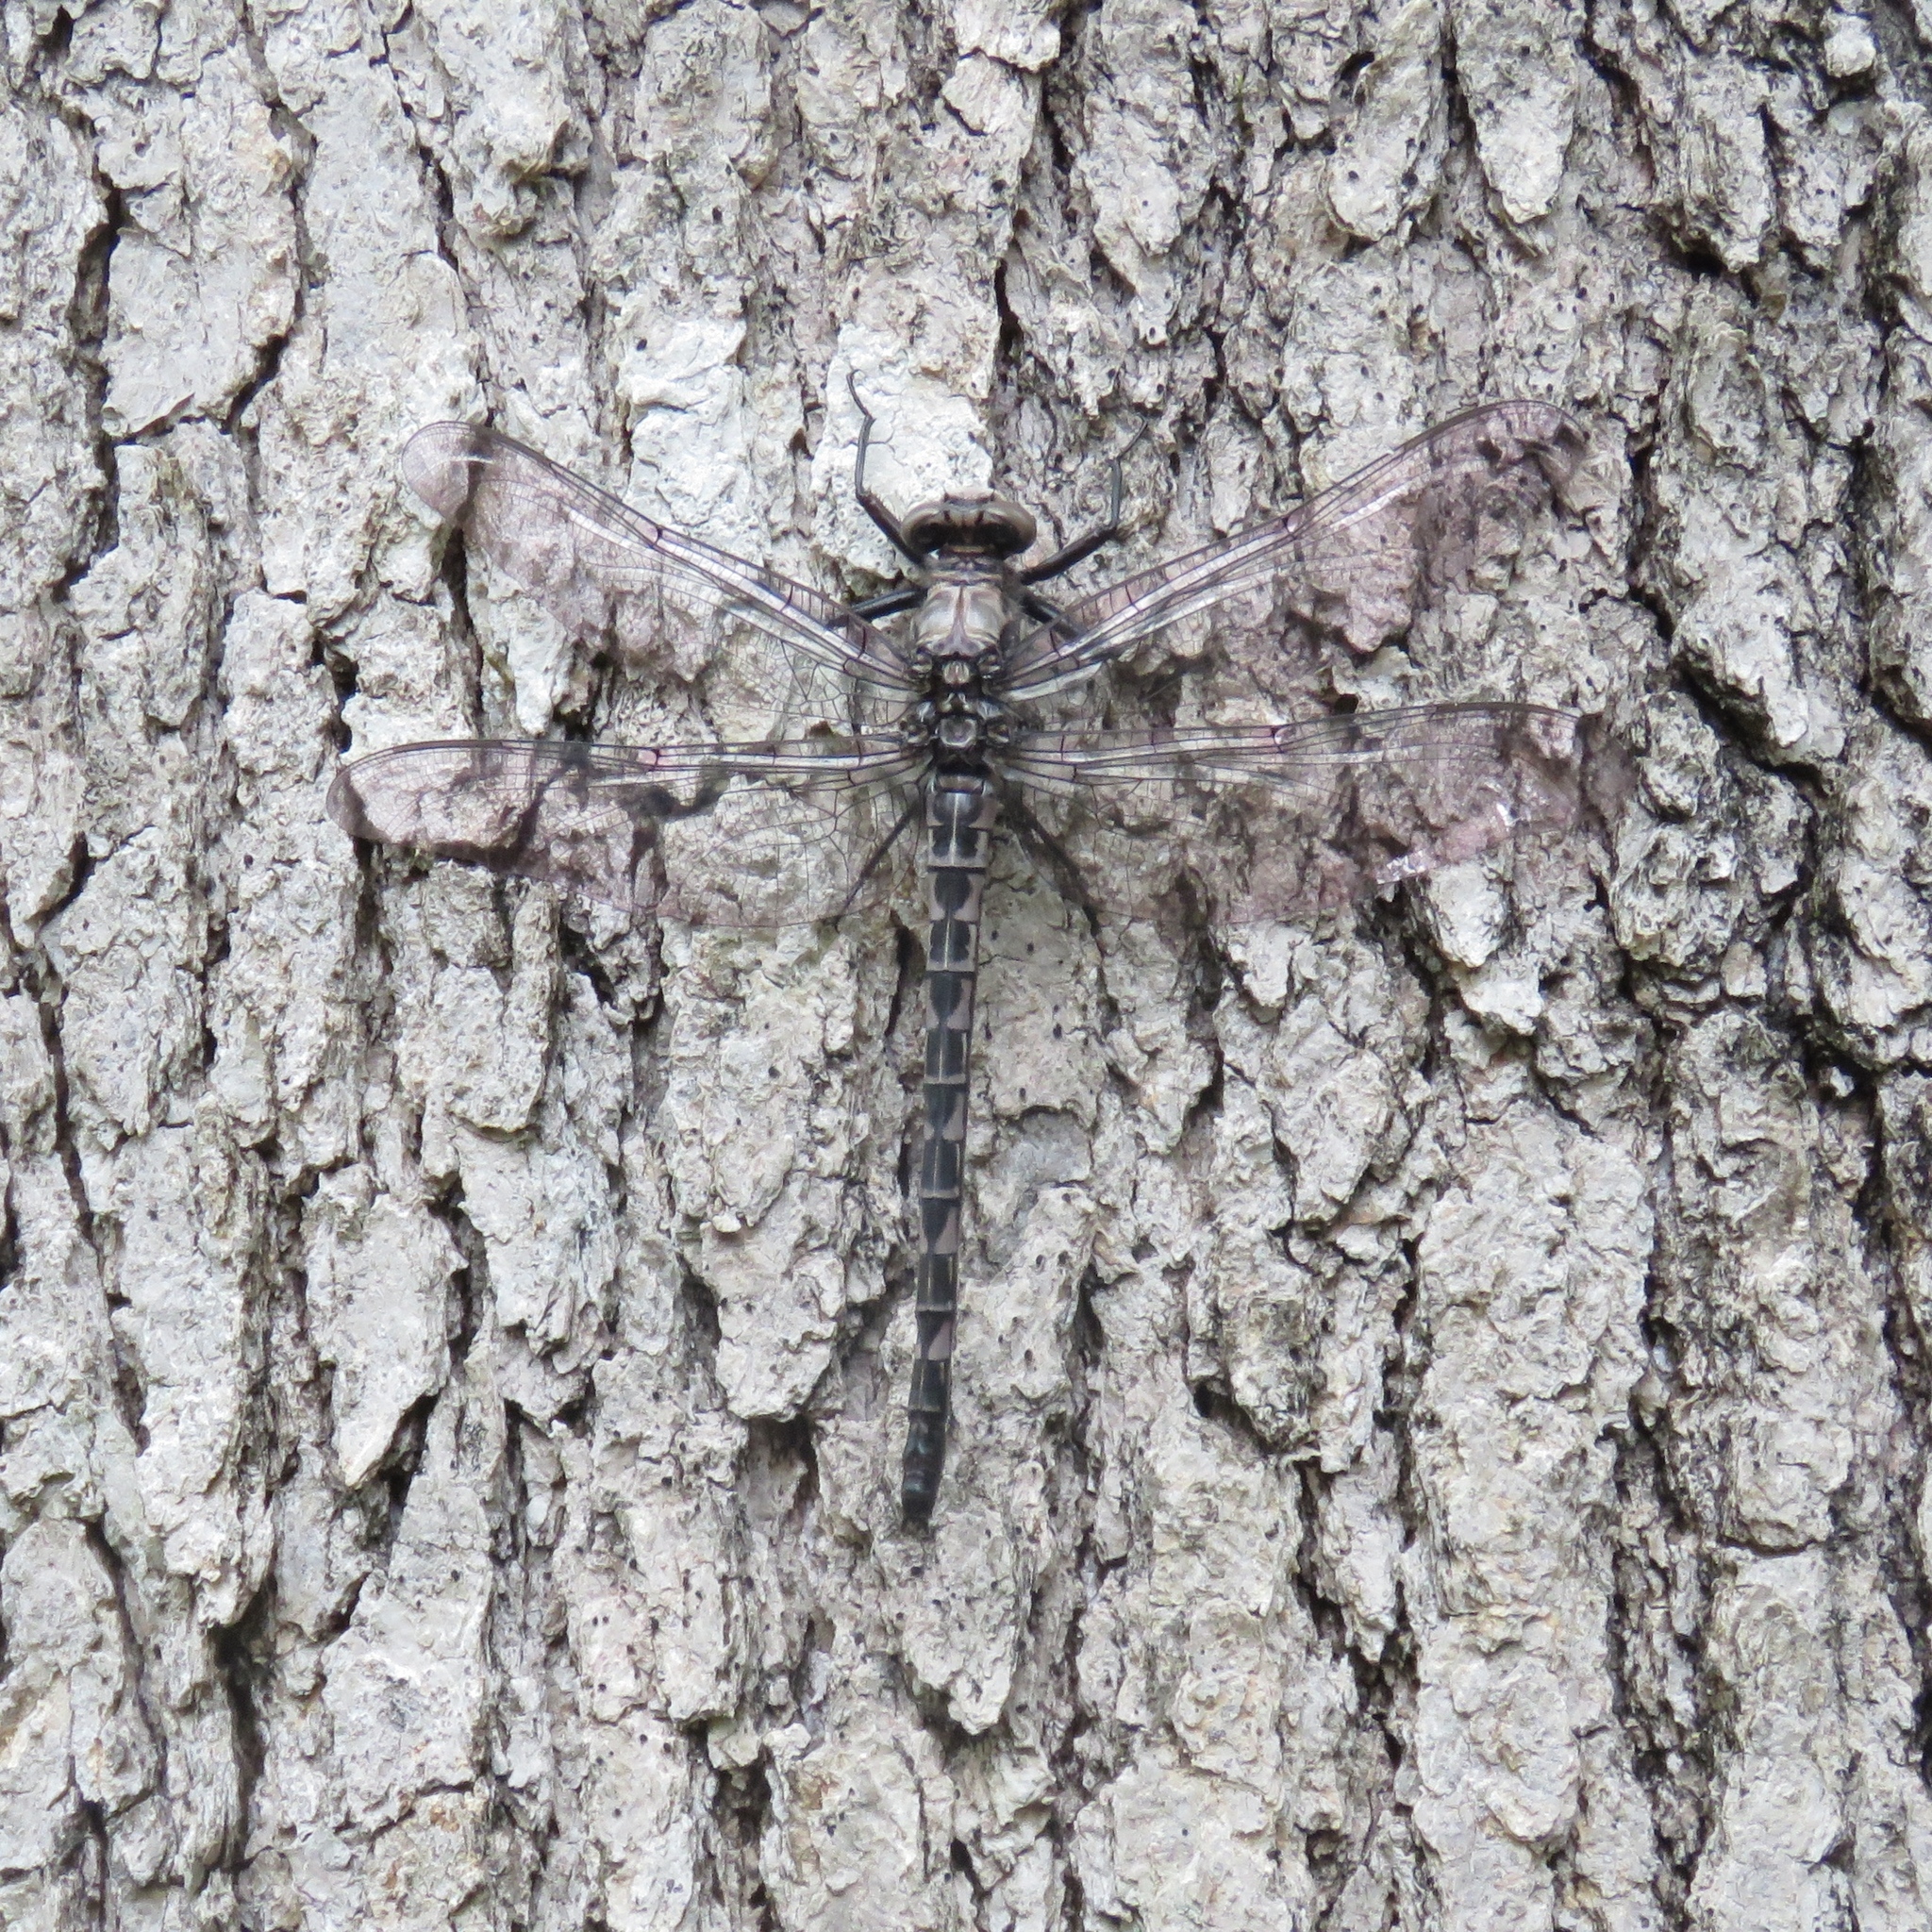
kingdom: Animalia
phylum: Arthropoda
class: Insecta
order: Odonata
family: Petaluridae
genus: Tachopteryx
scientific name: Tachopteryx thoreyi
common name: Gray petaltail
